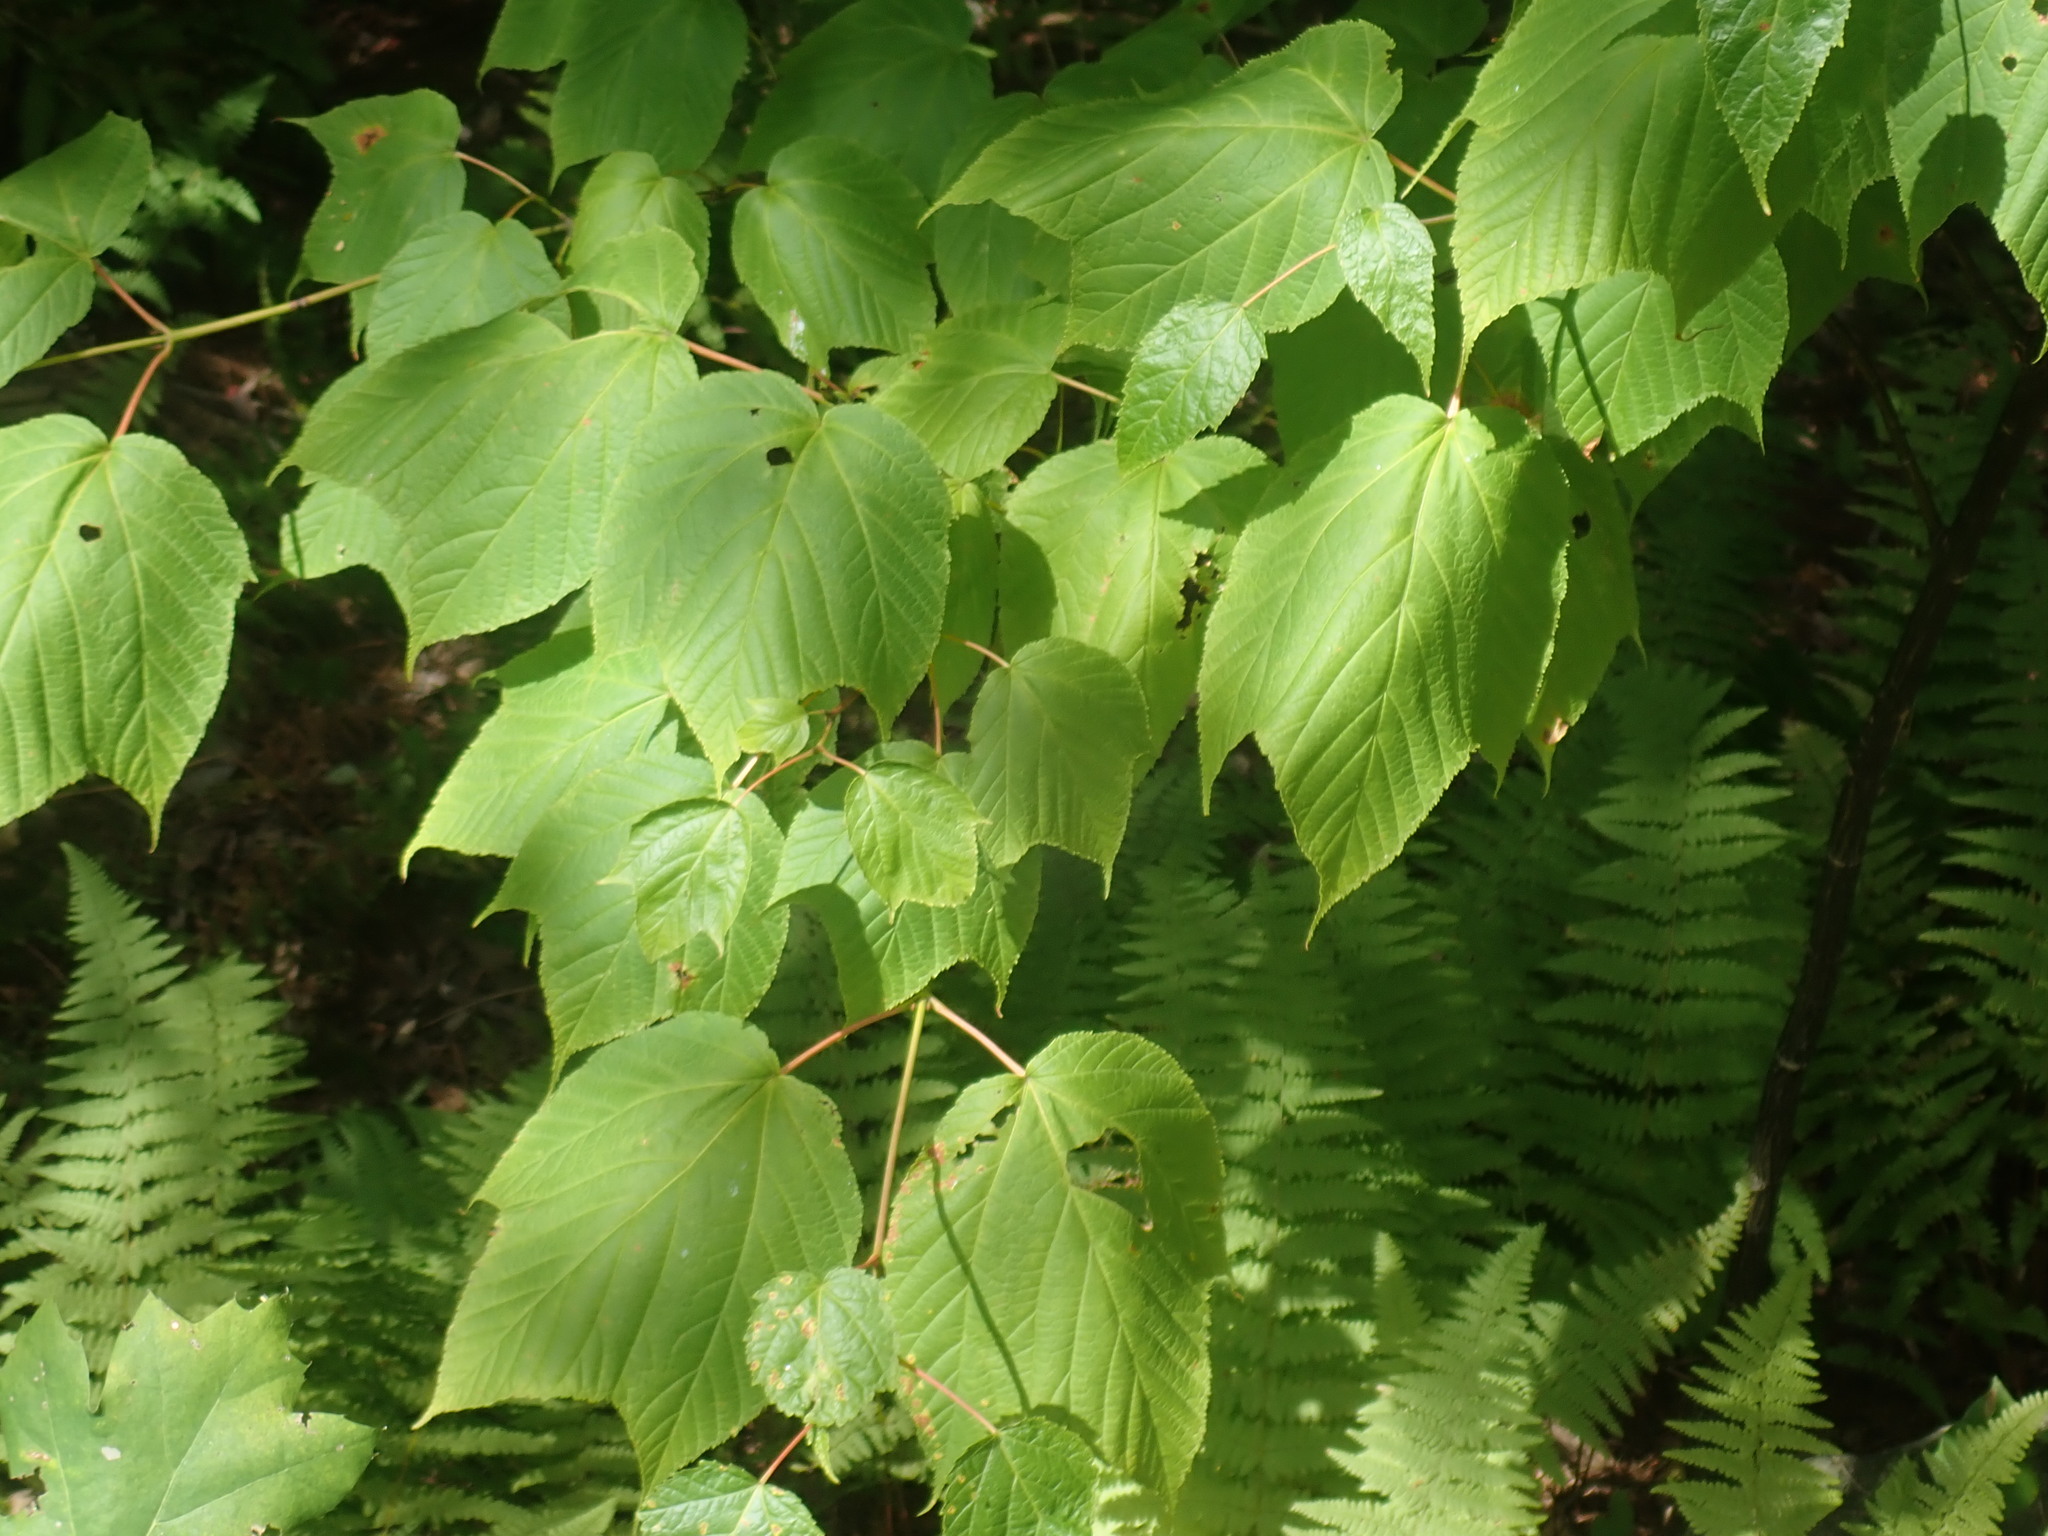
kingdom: Plantae
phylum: Tracheophyta
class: Magnoliopsida
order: Sapindales
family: Sapindaceae
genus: Acer
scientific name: Acer pensylvanicum
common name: Moosewood
